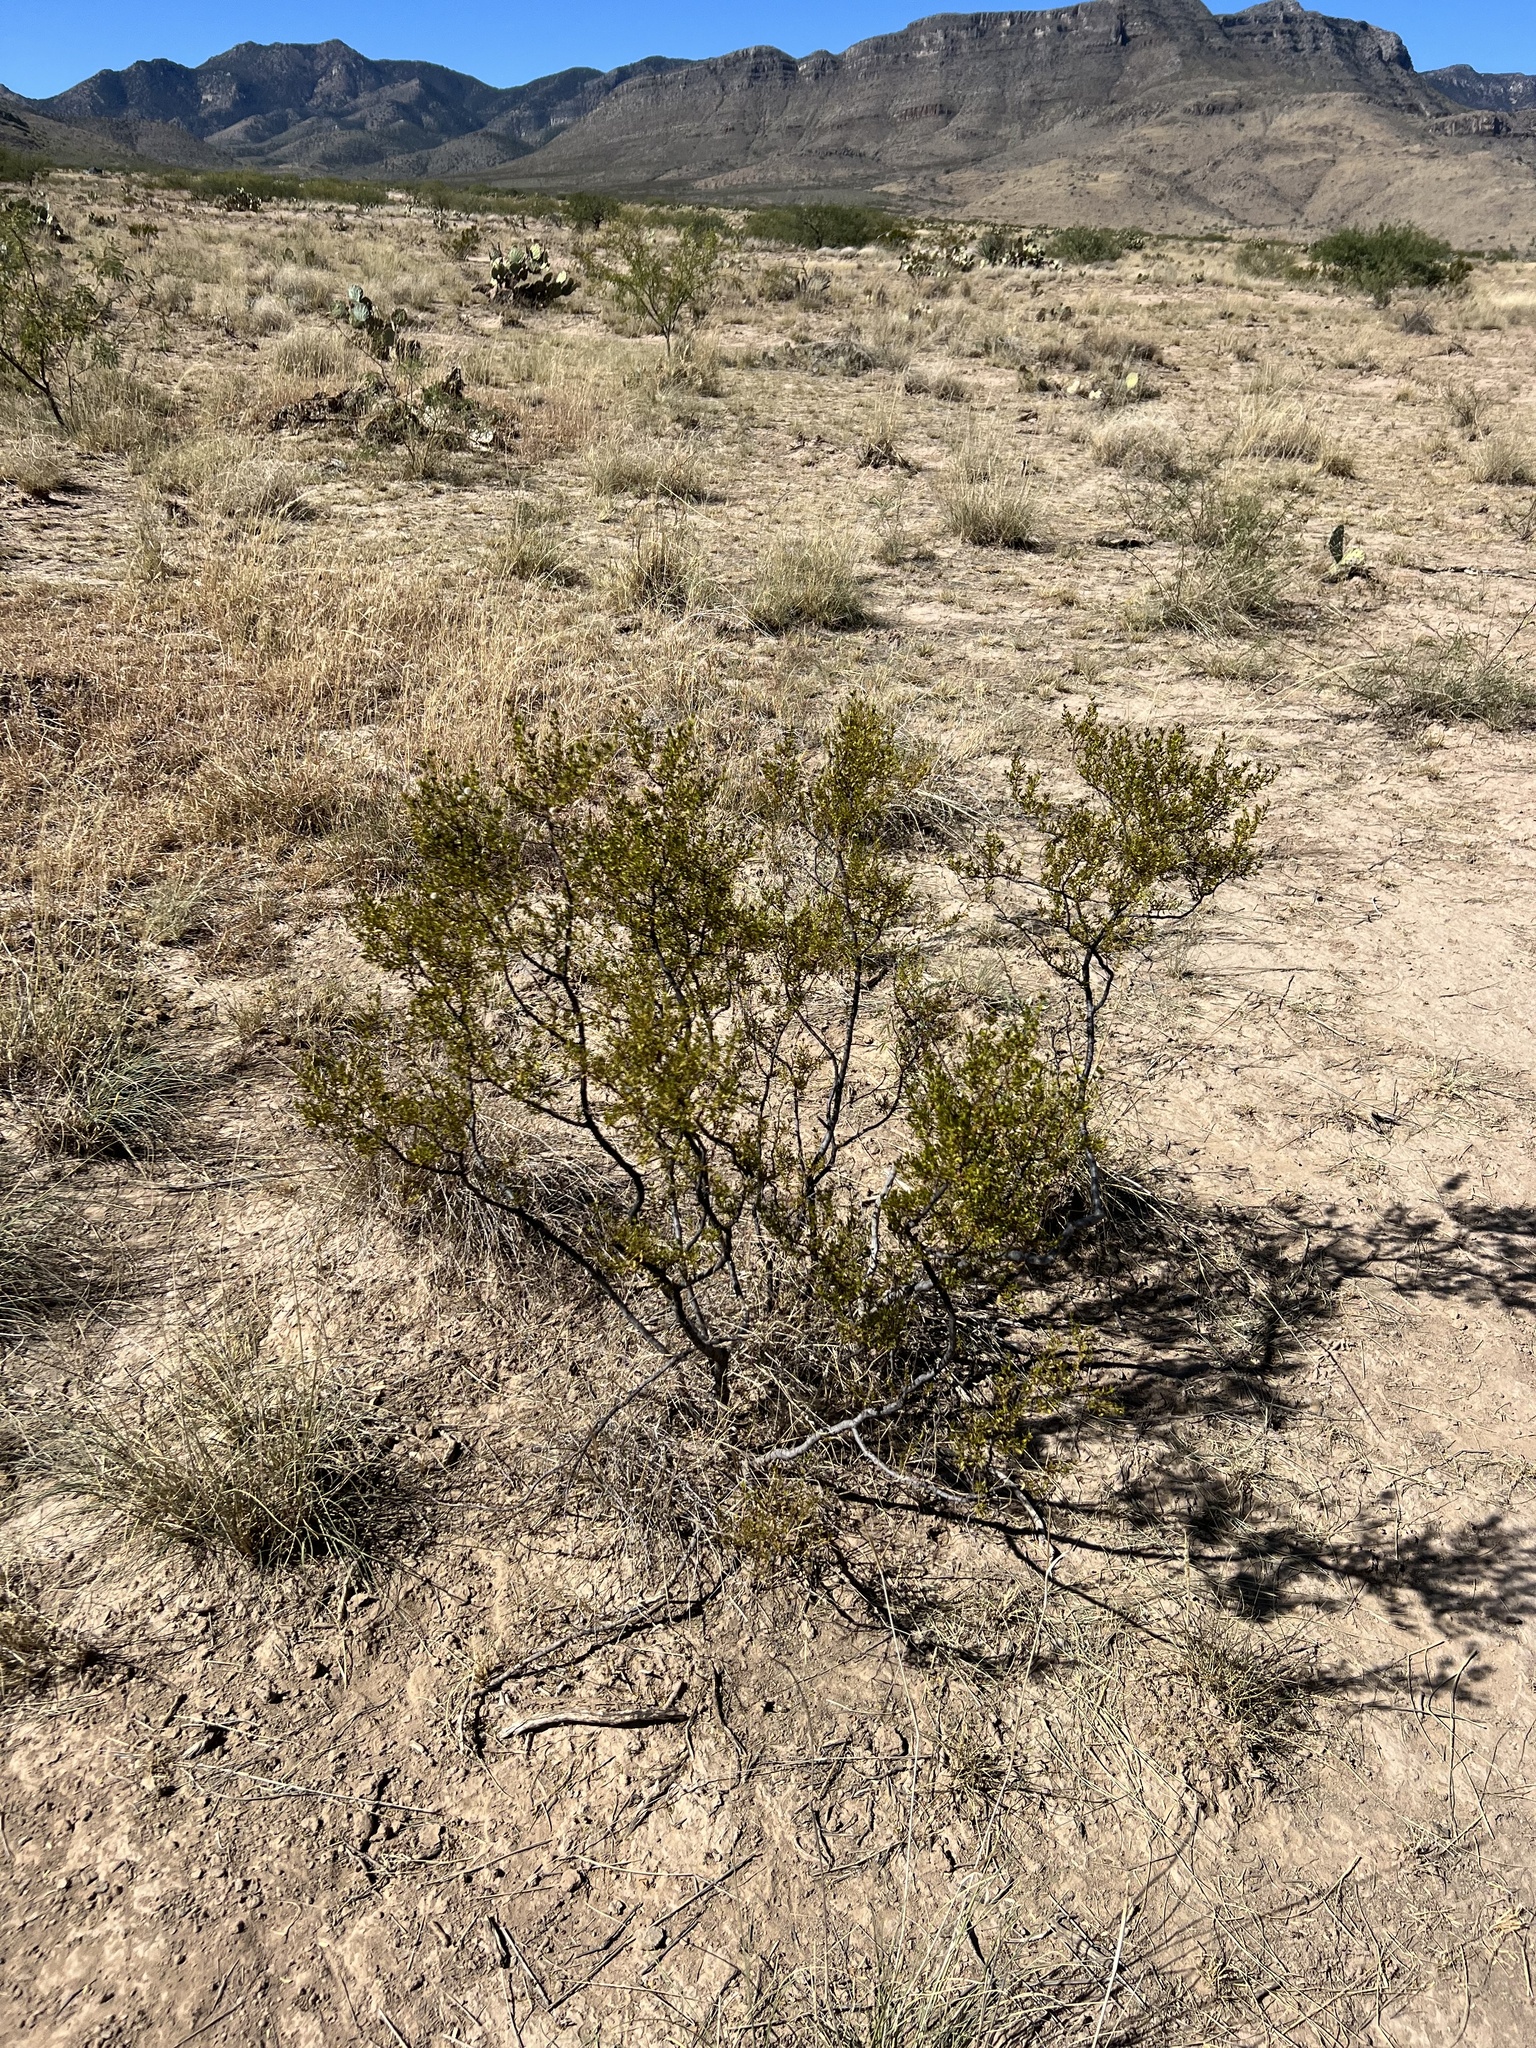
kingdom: Plantae
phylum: Tracheophyta
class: Magnoliopsida
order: Zygophyllales
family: Zygophyllaceae
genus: Larrea
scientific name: Larrea tridentata
